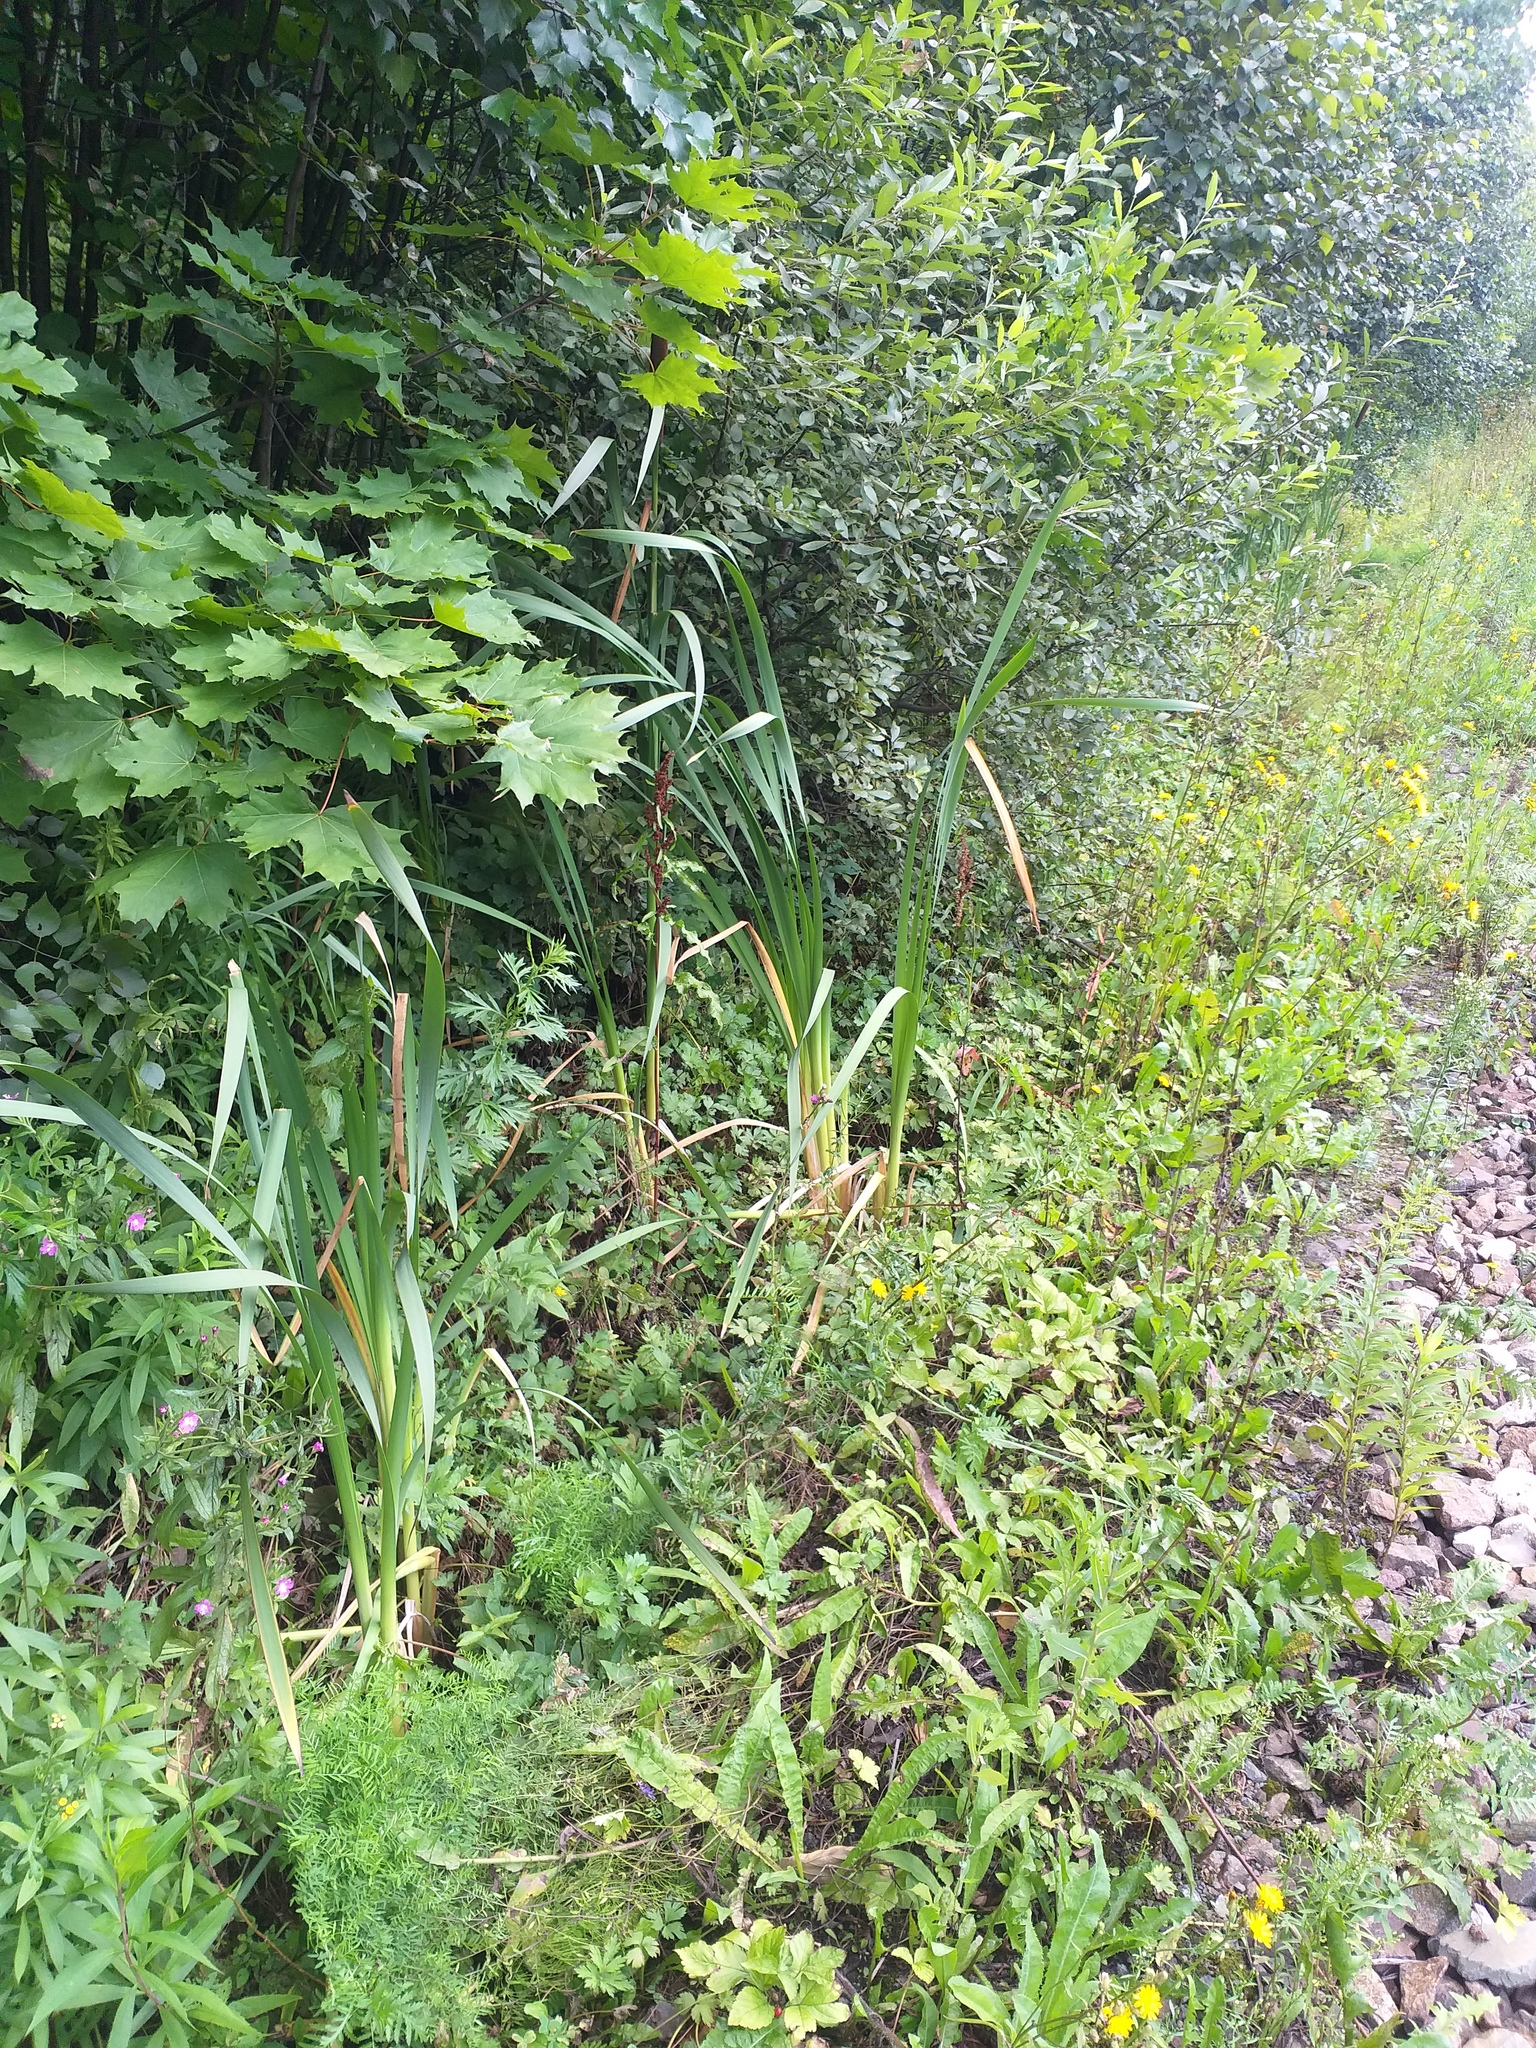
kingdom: Plantae
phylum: Tracheophyta
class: Liliopsida
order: Poales
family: Typhaceae
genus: Typha
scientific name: Typha latifolia
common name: Broadleaf cattail
